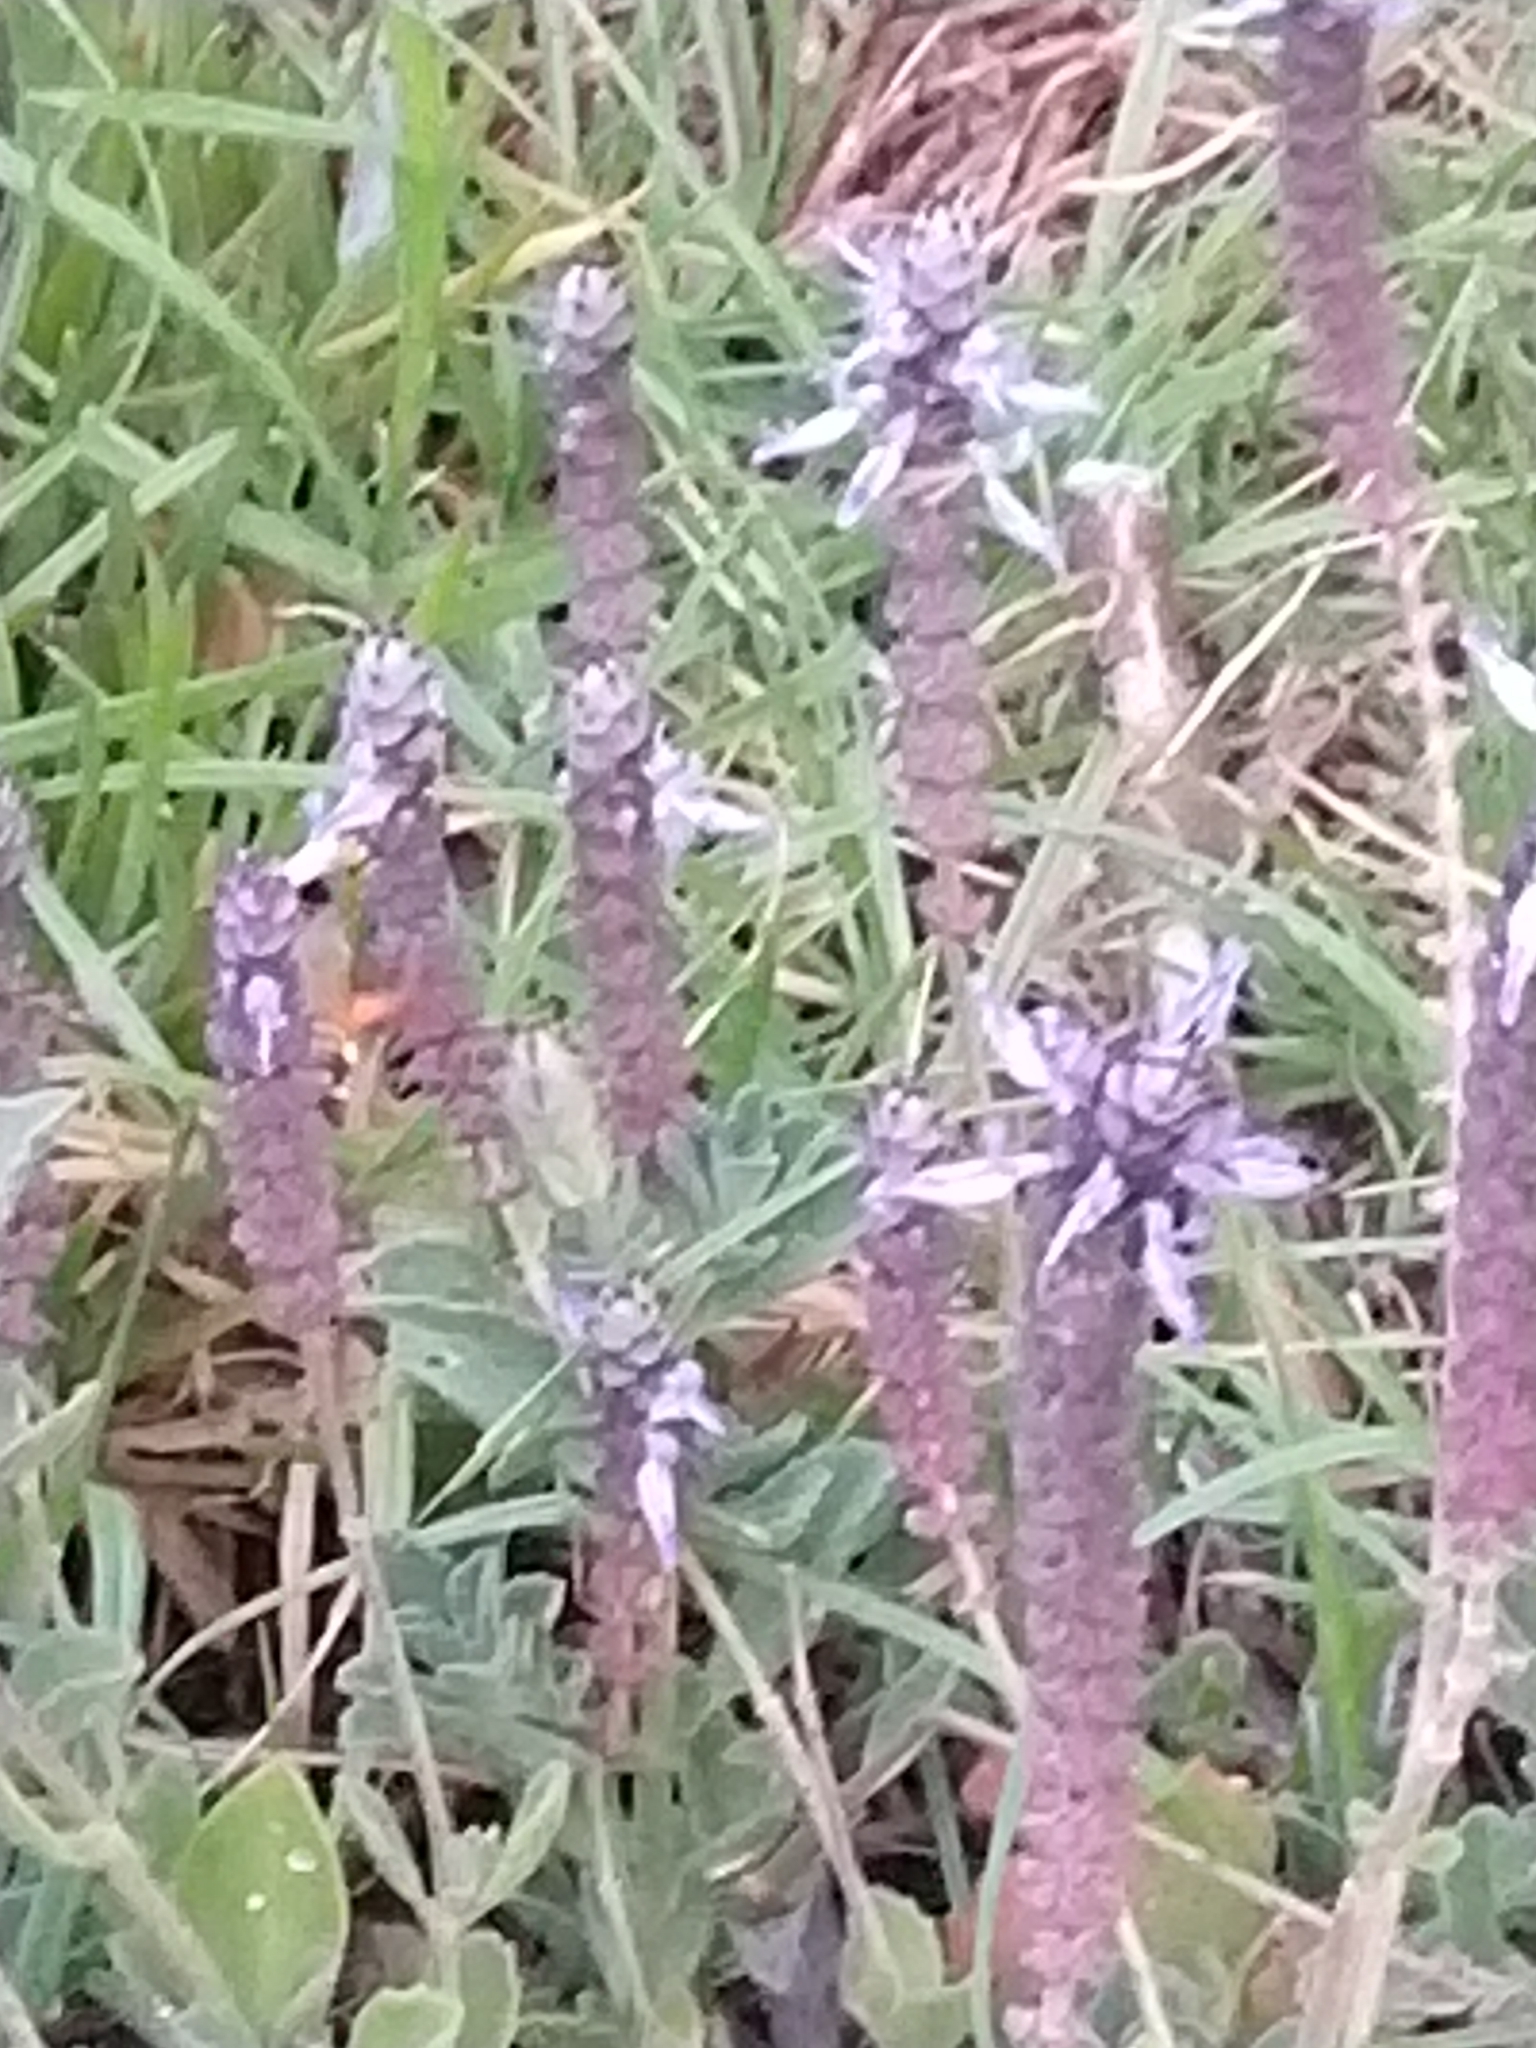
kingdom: Animalia
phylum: Arthropoda
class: Insecta
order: Lepidoptera
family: Sphingidae
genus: Macroglossum
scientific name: Macroglossum trochilus
